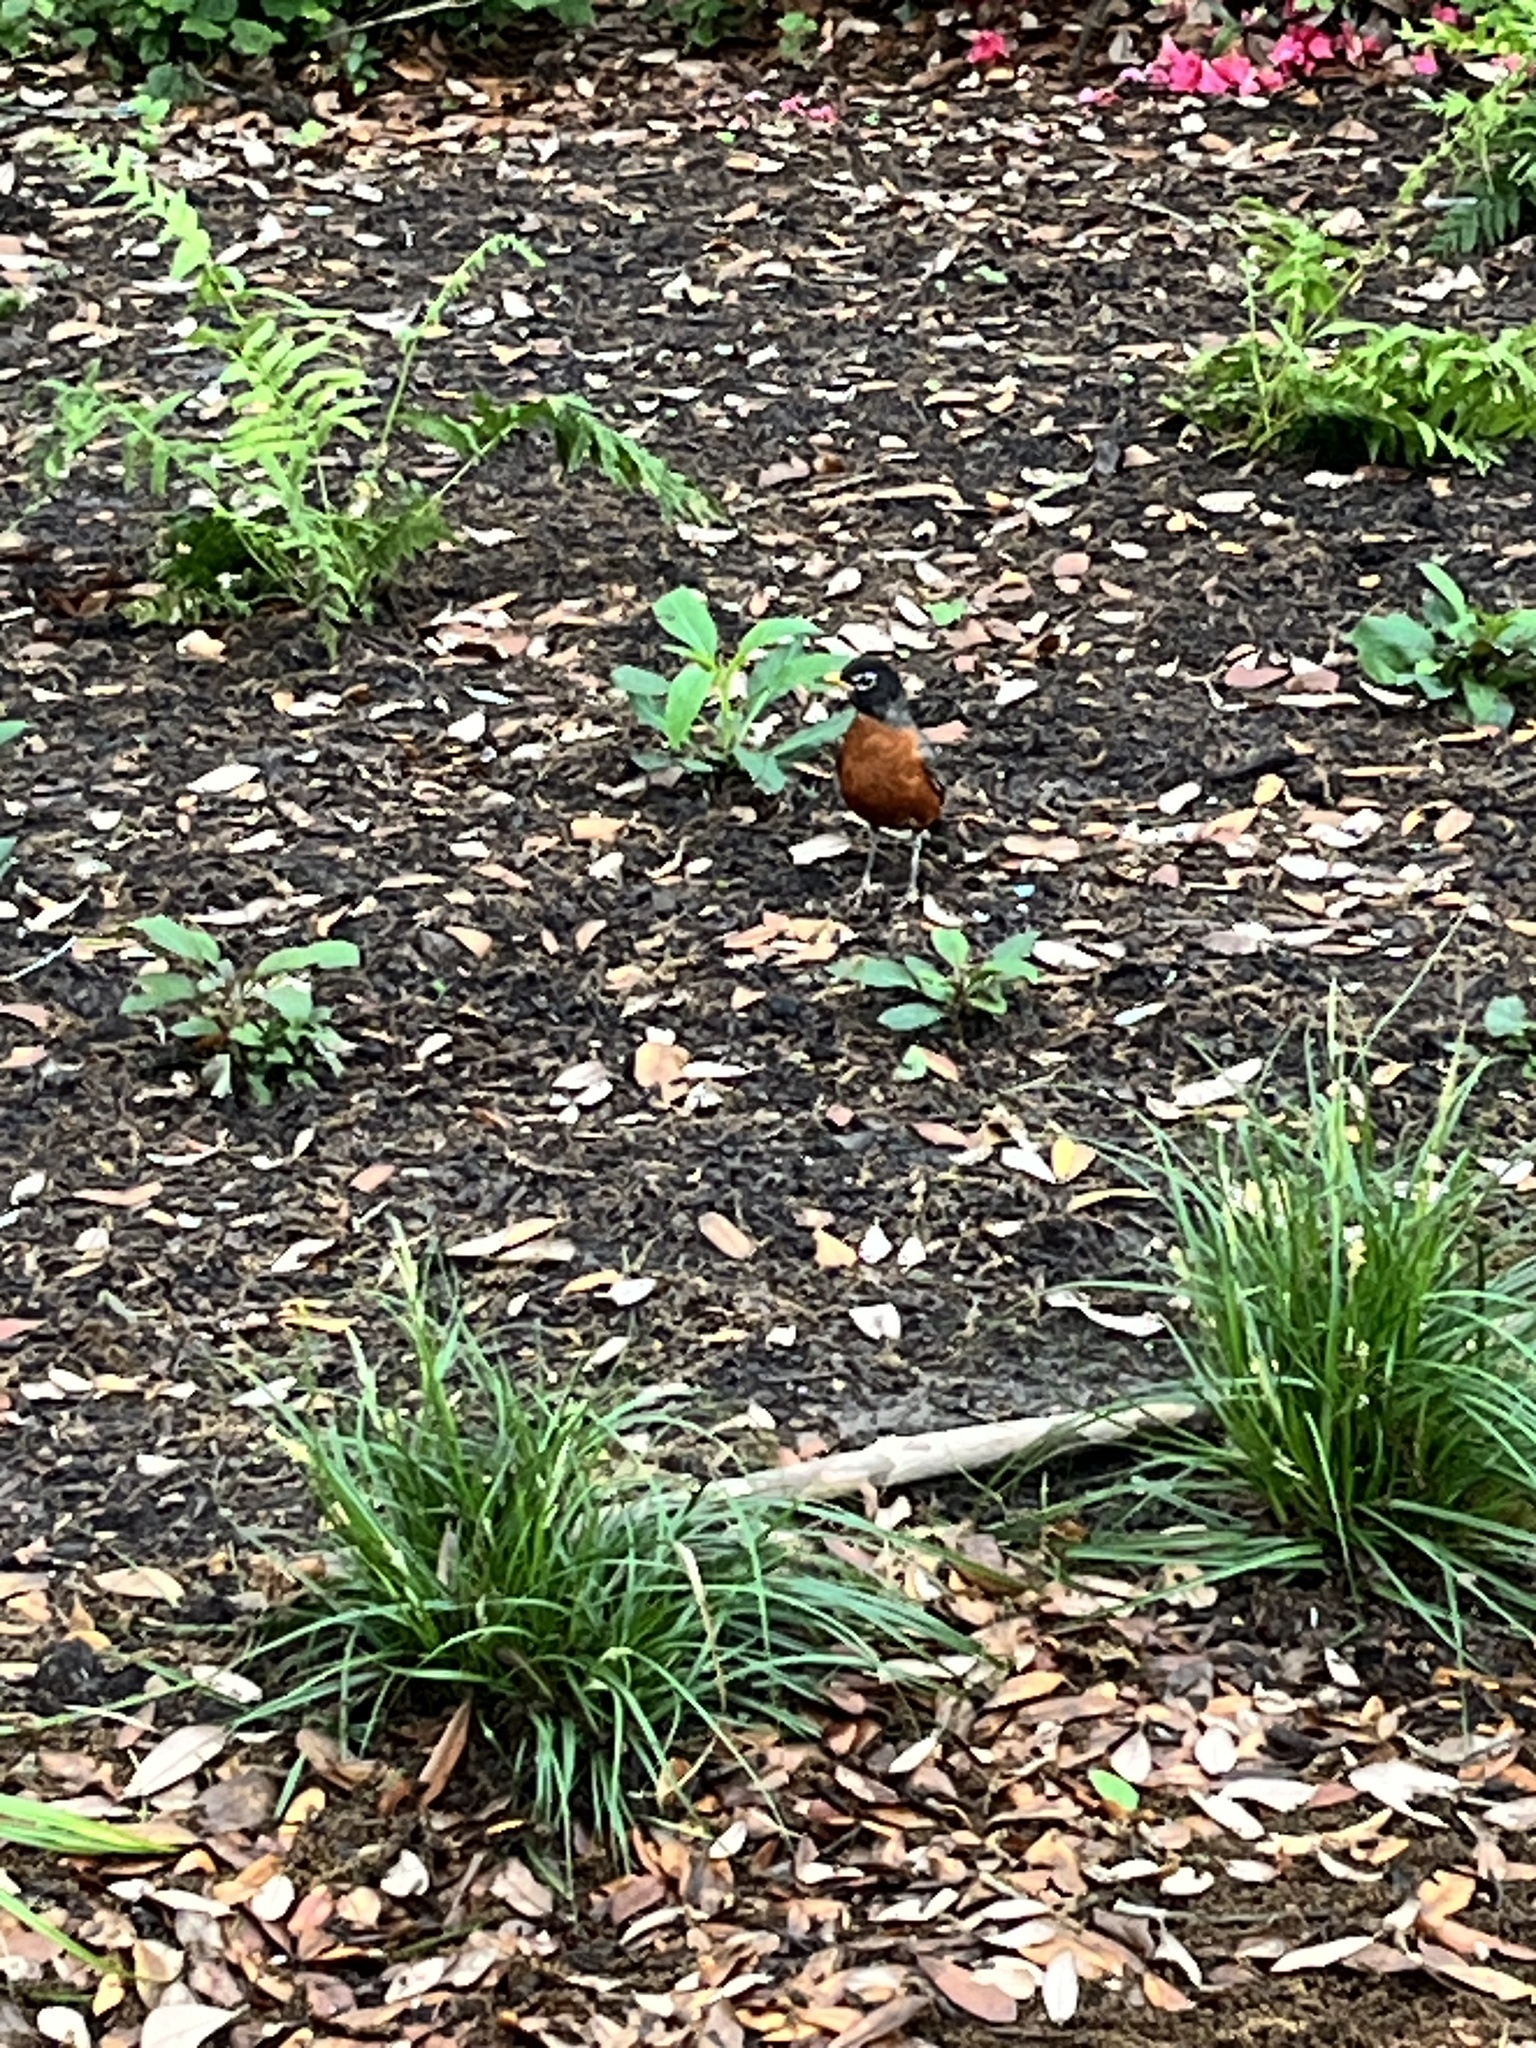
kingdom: Animalia
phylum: Chordata
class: Aves
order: Passeriformes
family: Turdidae
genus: Turdus
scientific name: Turdus migratorius
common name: American robin
